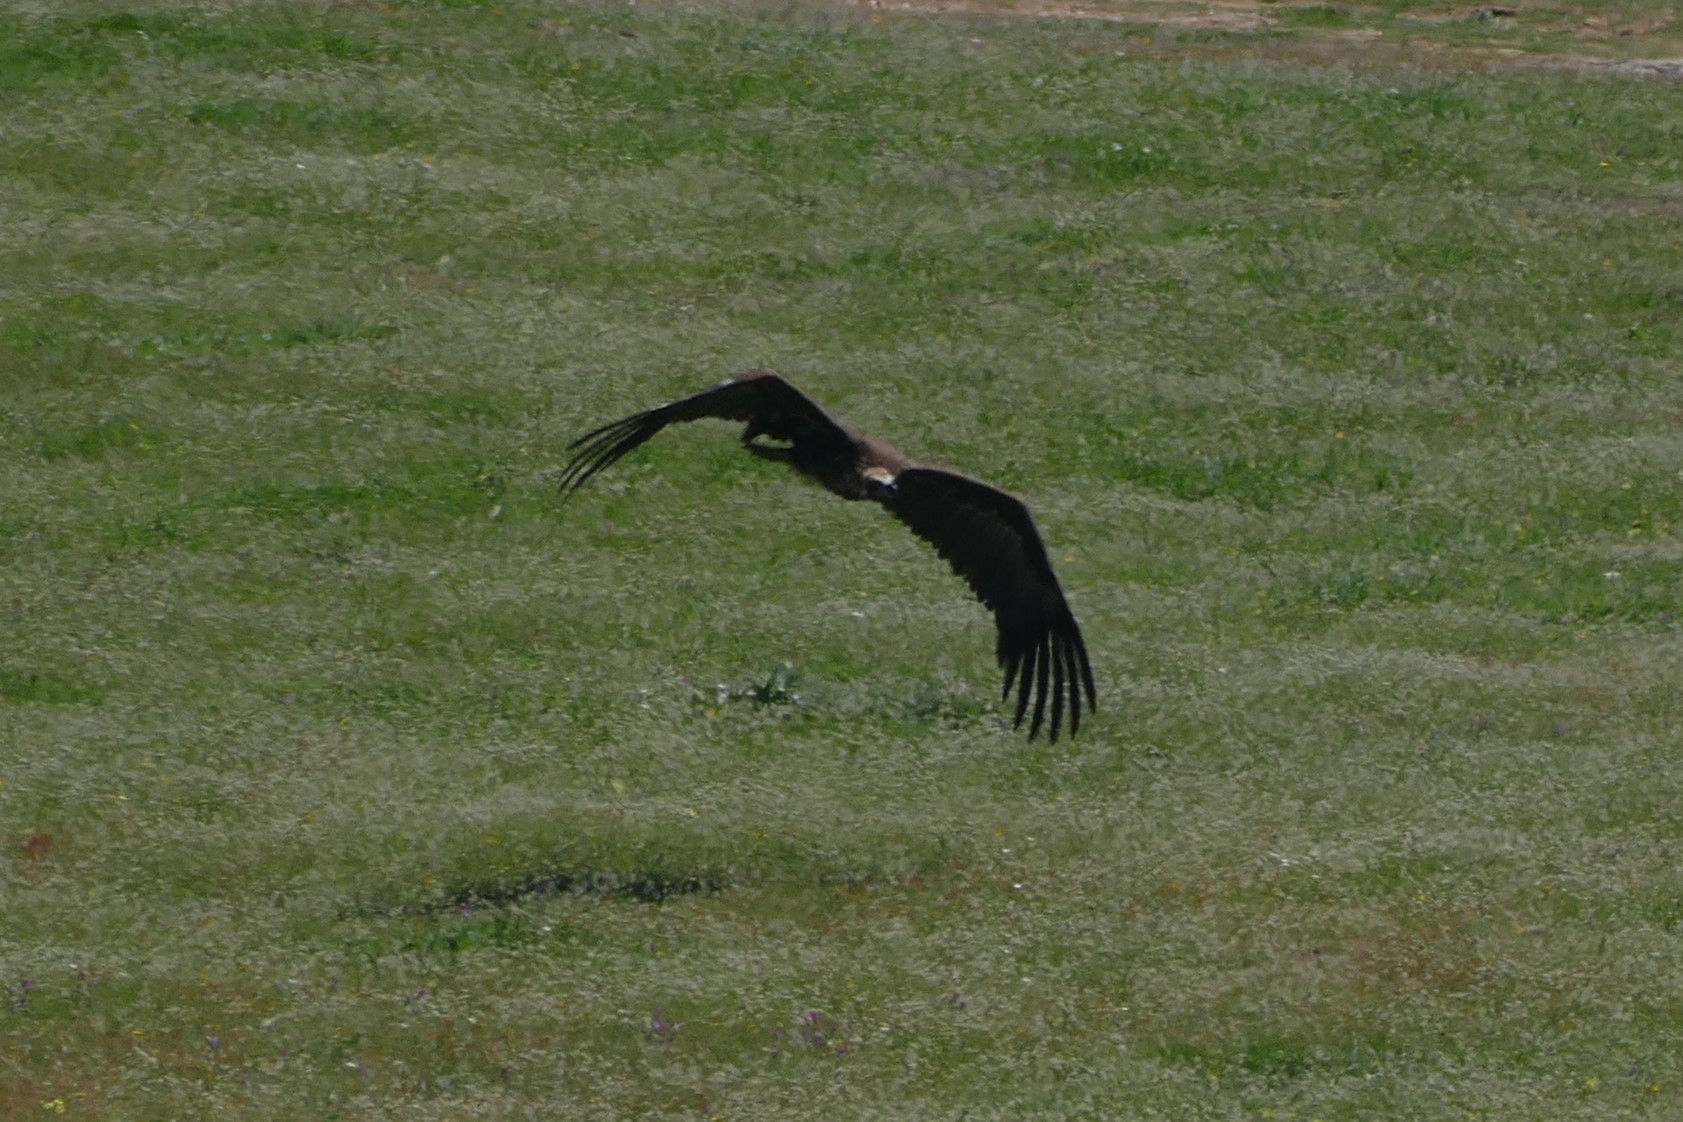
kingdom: Animalia
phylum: Chordata
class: Aves
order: Accipitriformes
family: Accipitridae
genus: Aegypius
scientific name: Aegypius monachus
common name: Cinereous vulture
